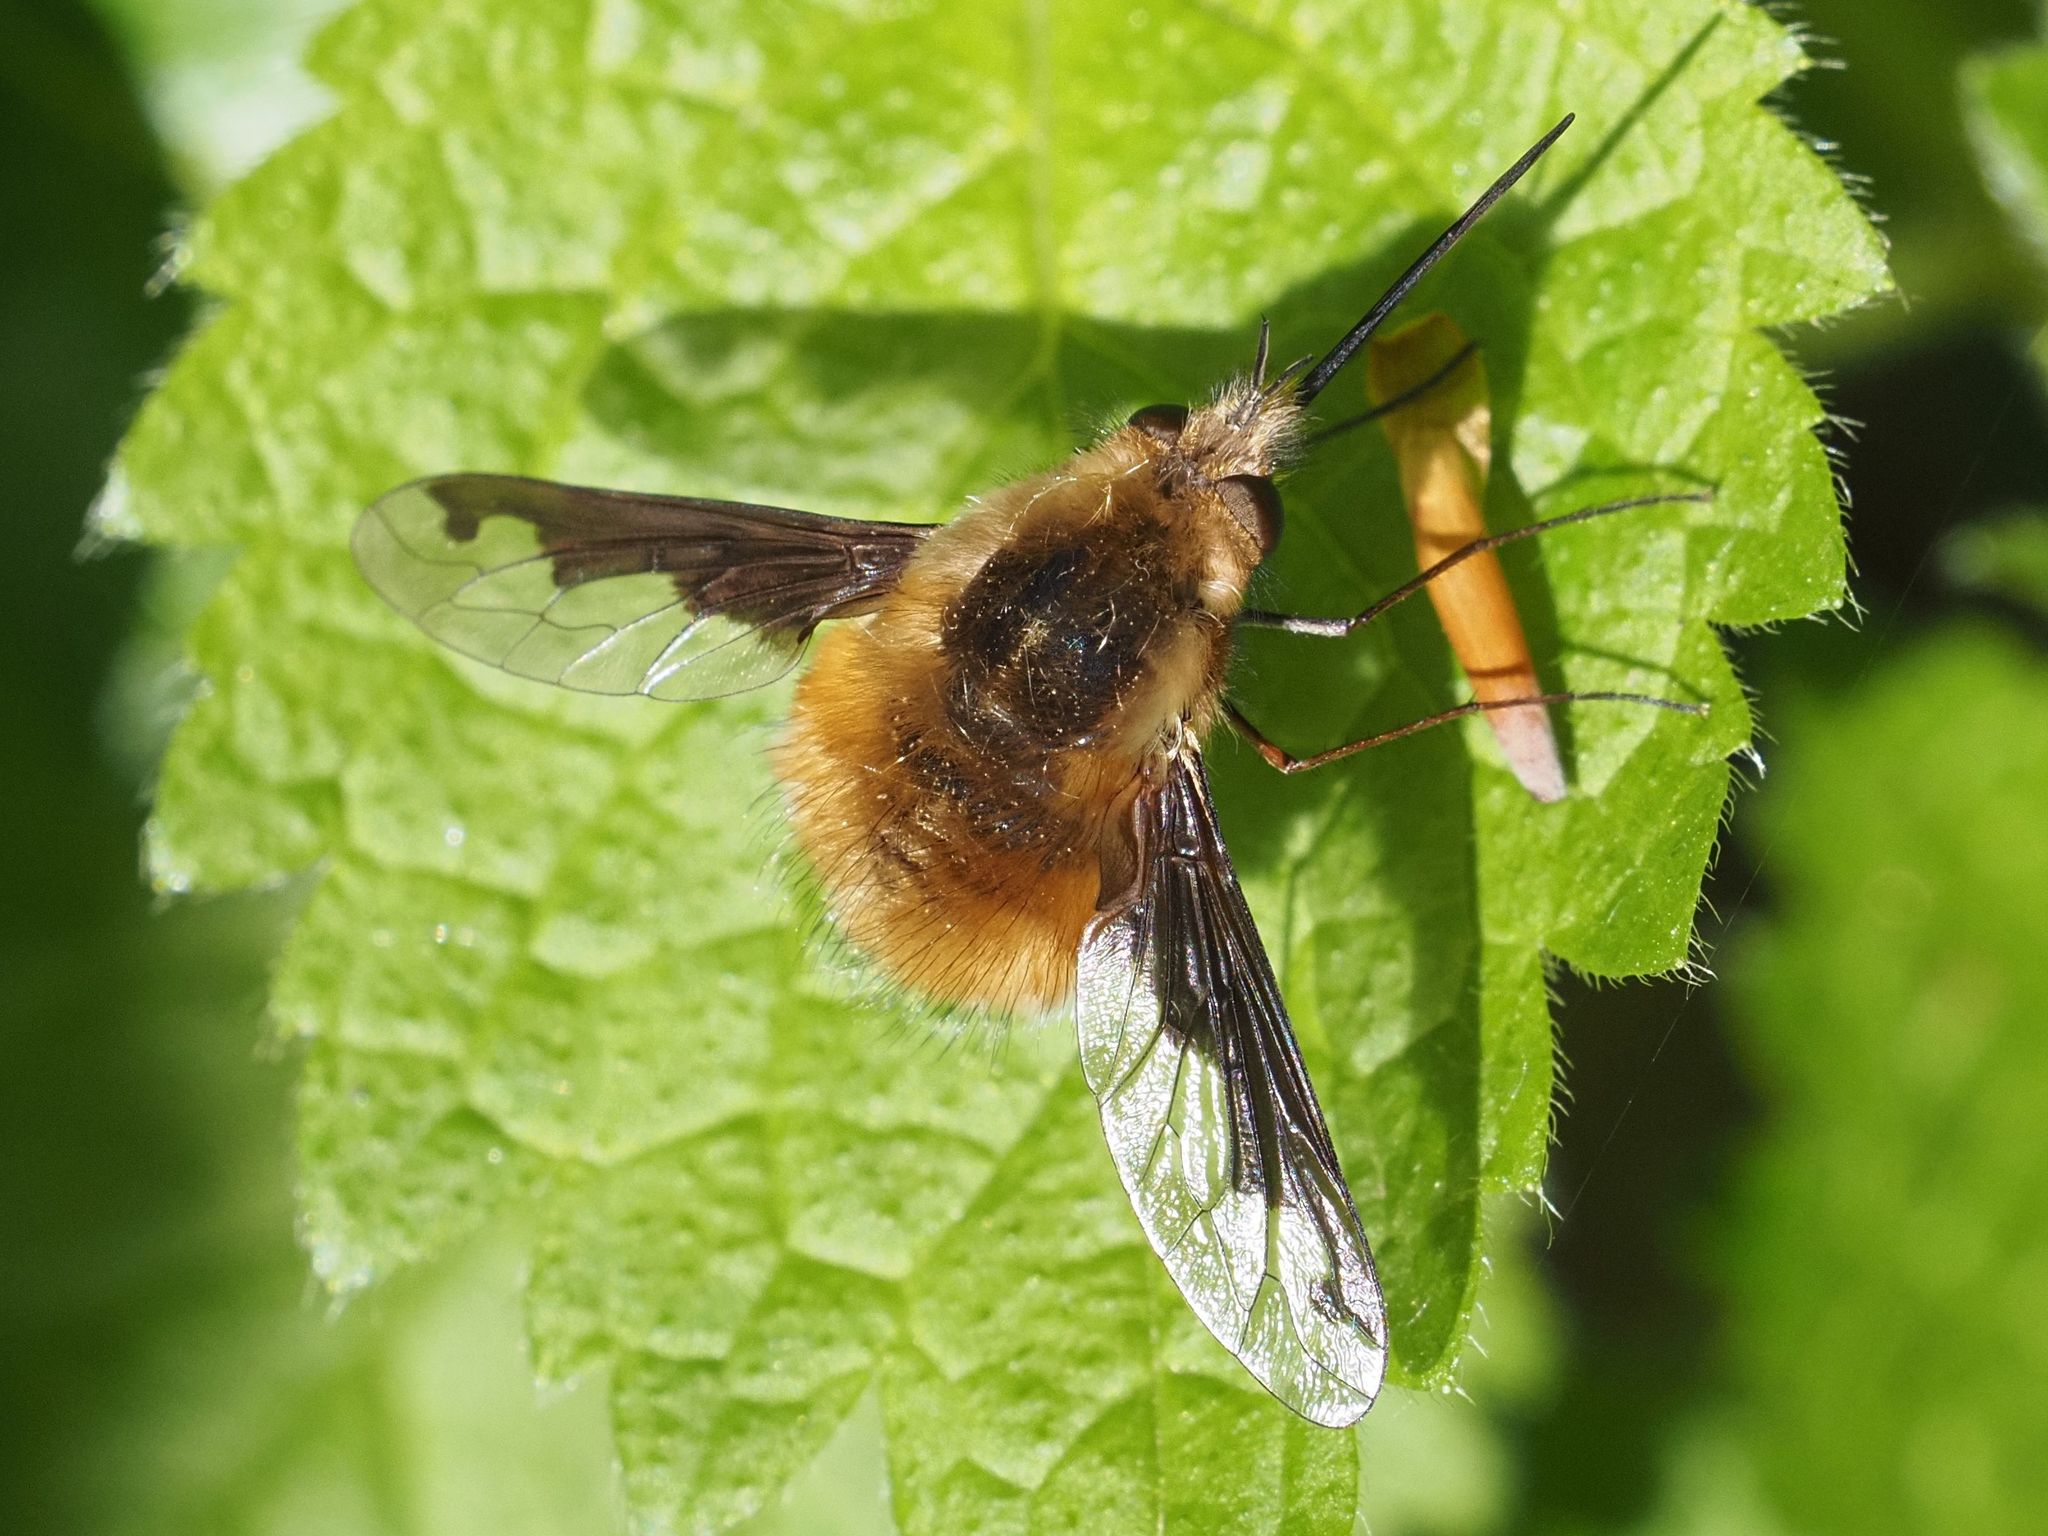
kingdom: Animalia
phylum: Arthropoda
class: Insecta
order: Diptera
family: Bombyliidae
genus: Bombylius
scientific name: Bombylius major
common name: Bee fly
